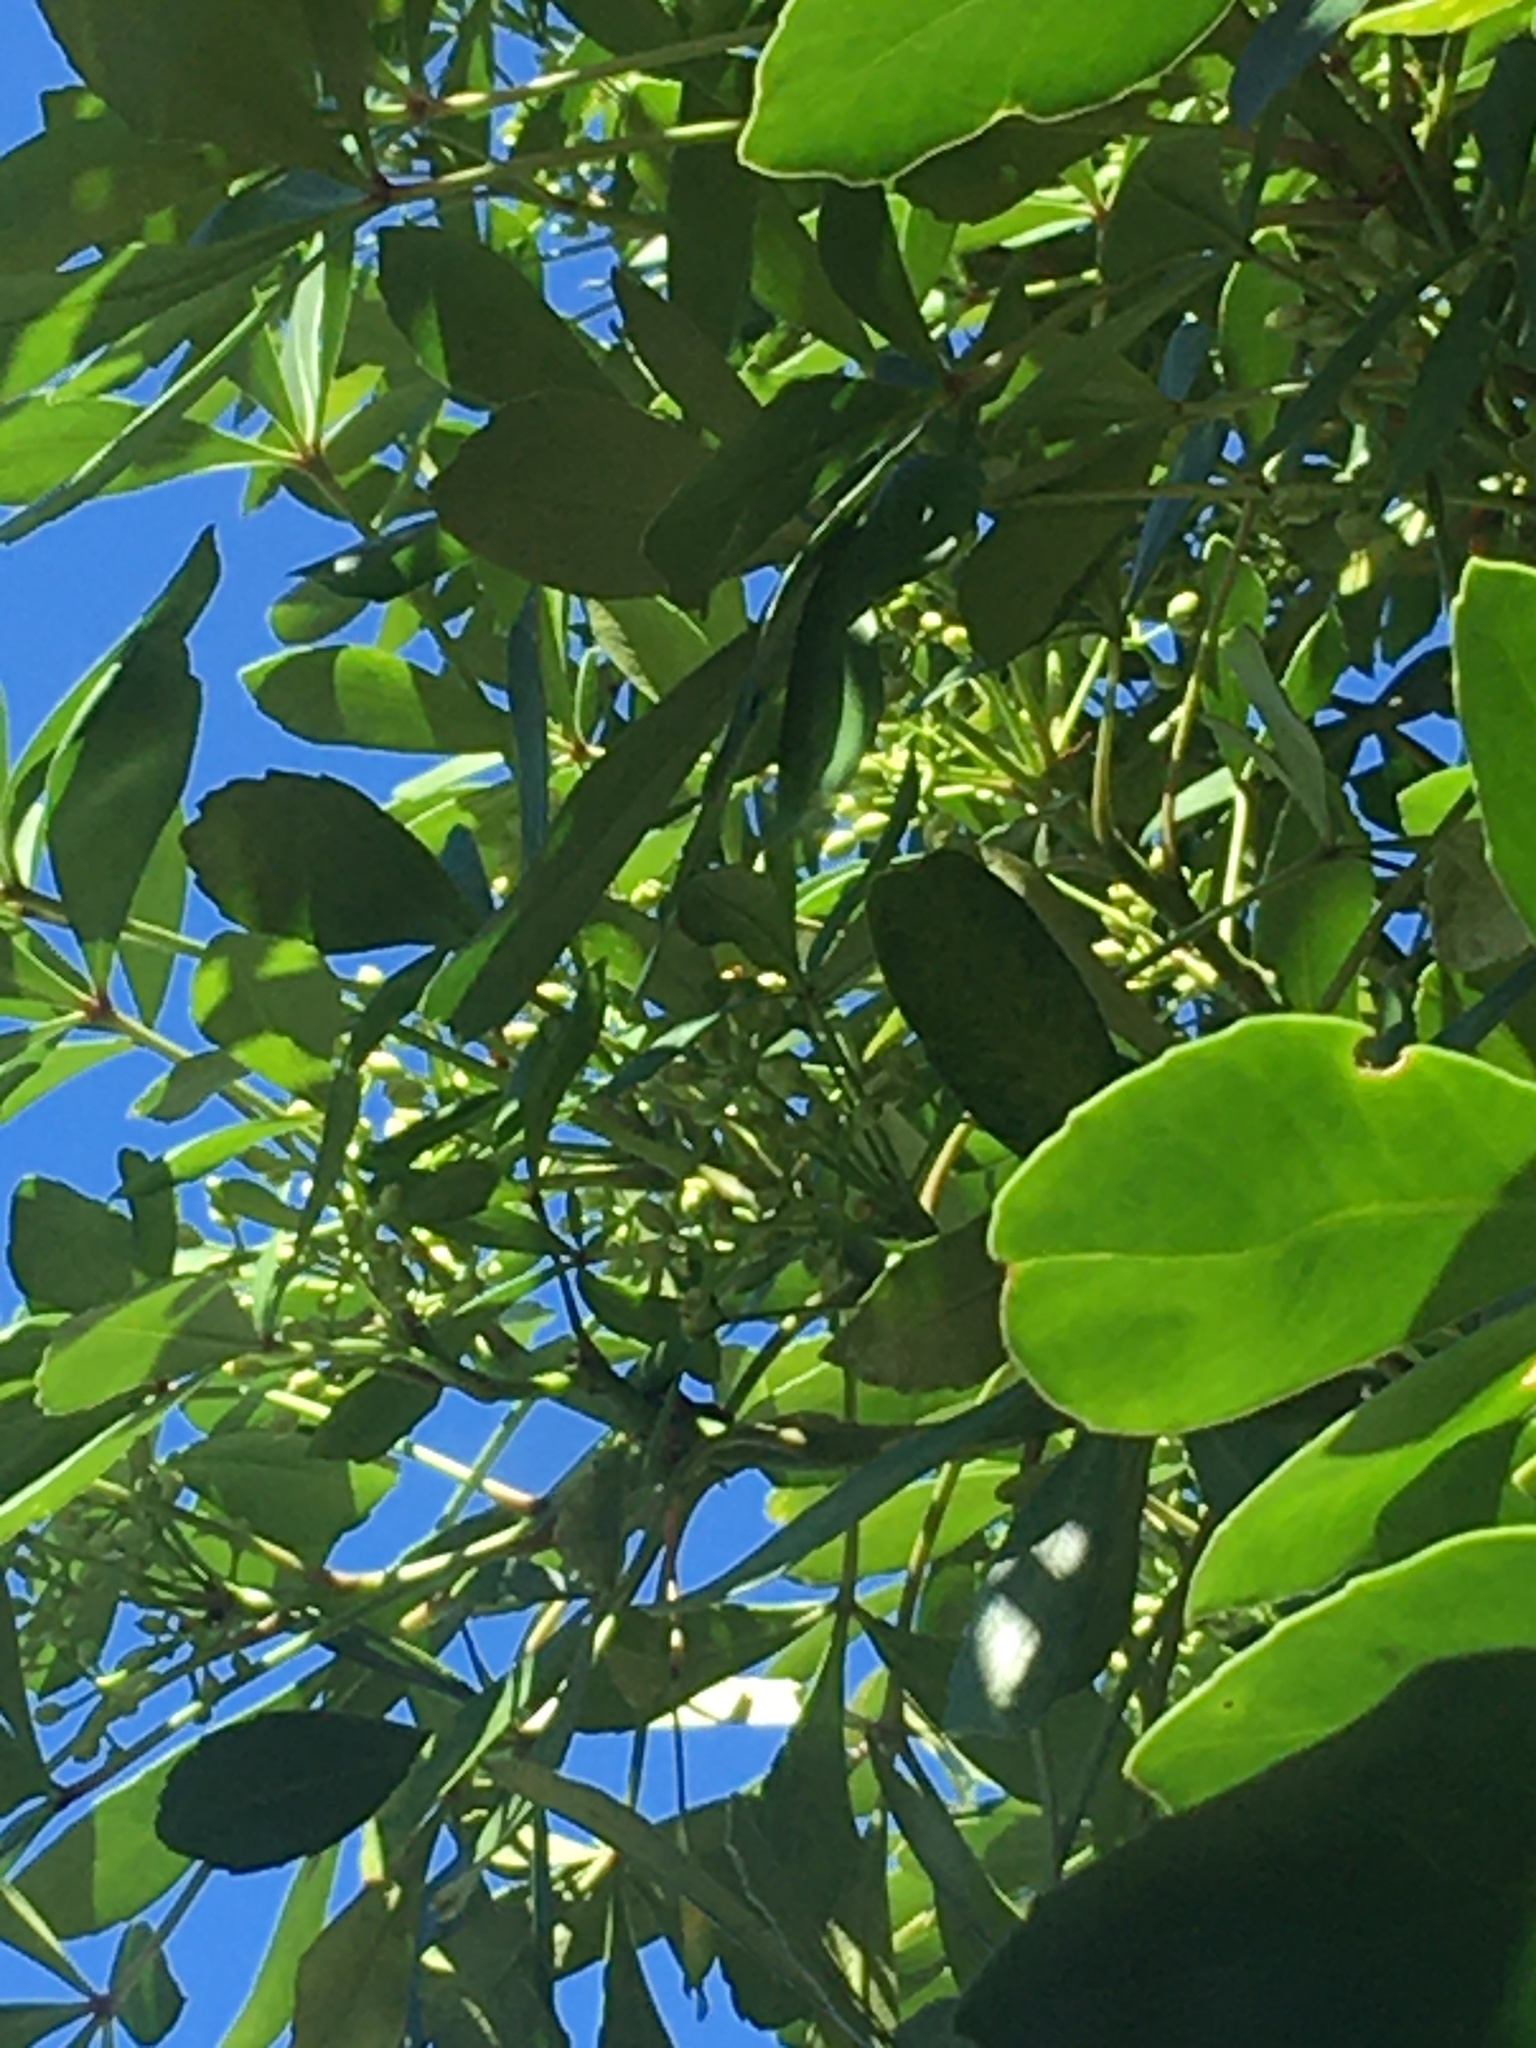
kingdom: Animalia
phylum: Arthropoda
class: Insecta
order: Hymenoptera
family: Apidae
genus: Apis
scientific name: Apis mellifera
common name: Honey bee
